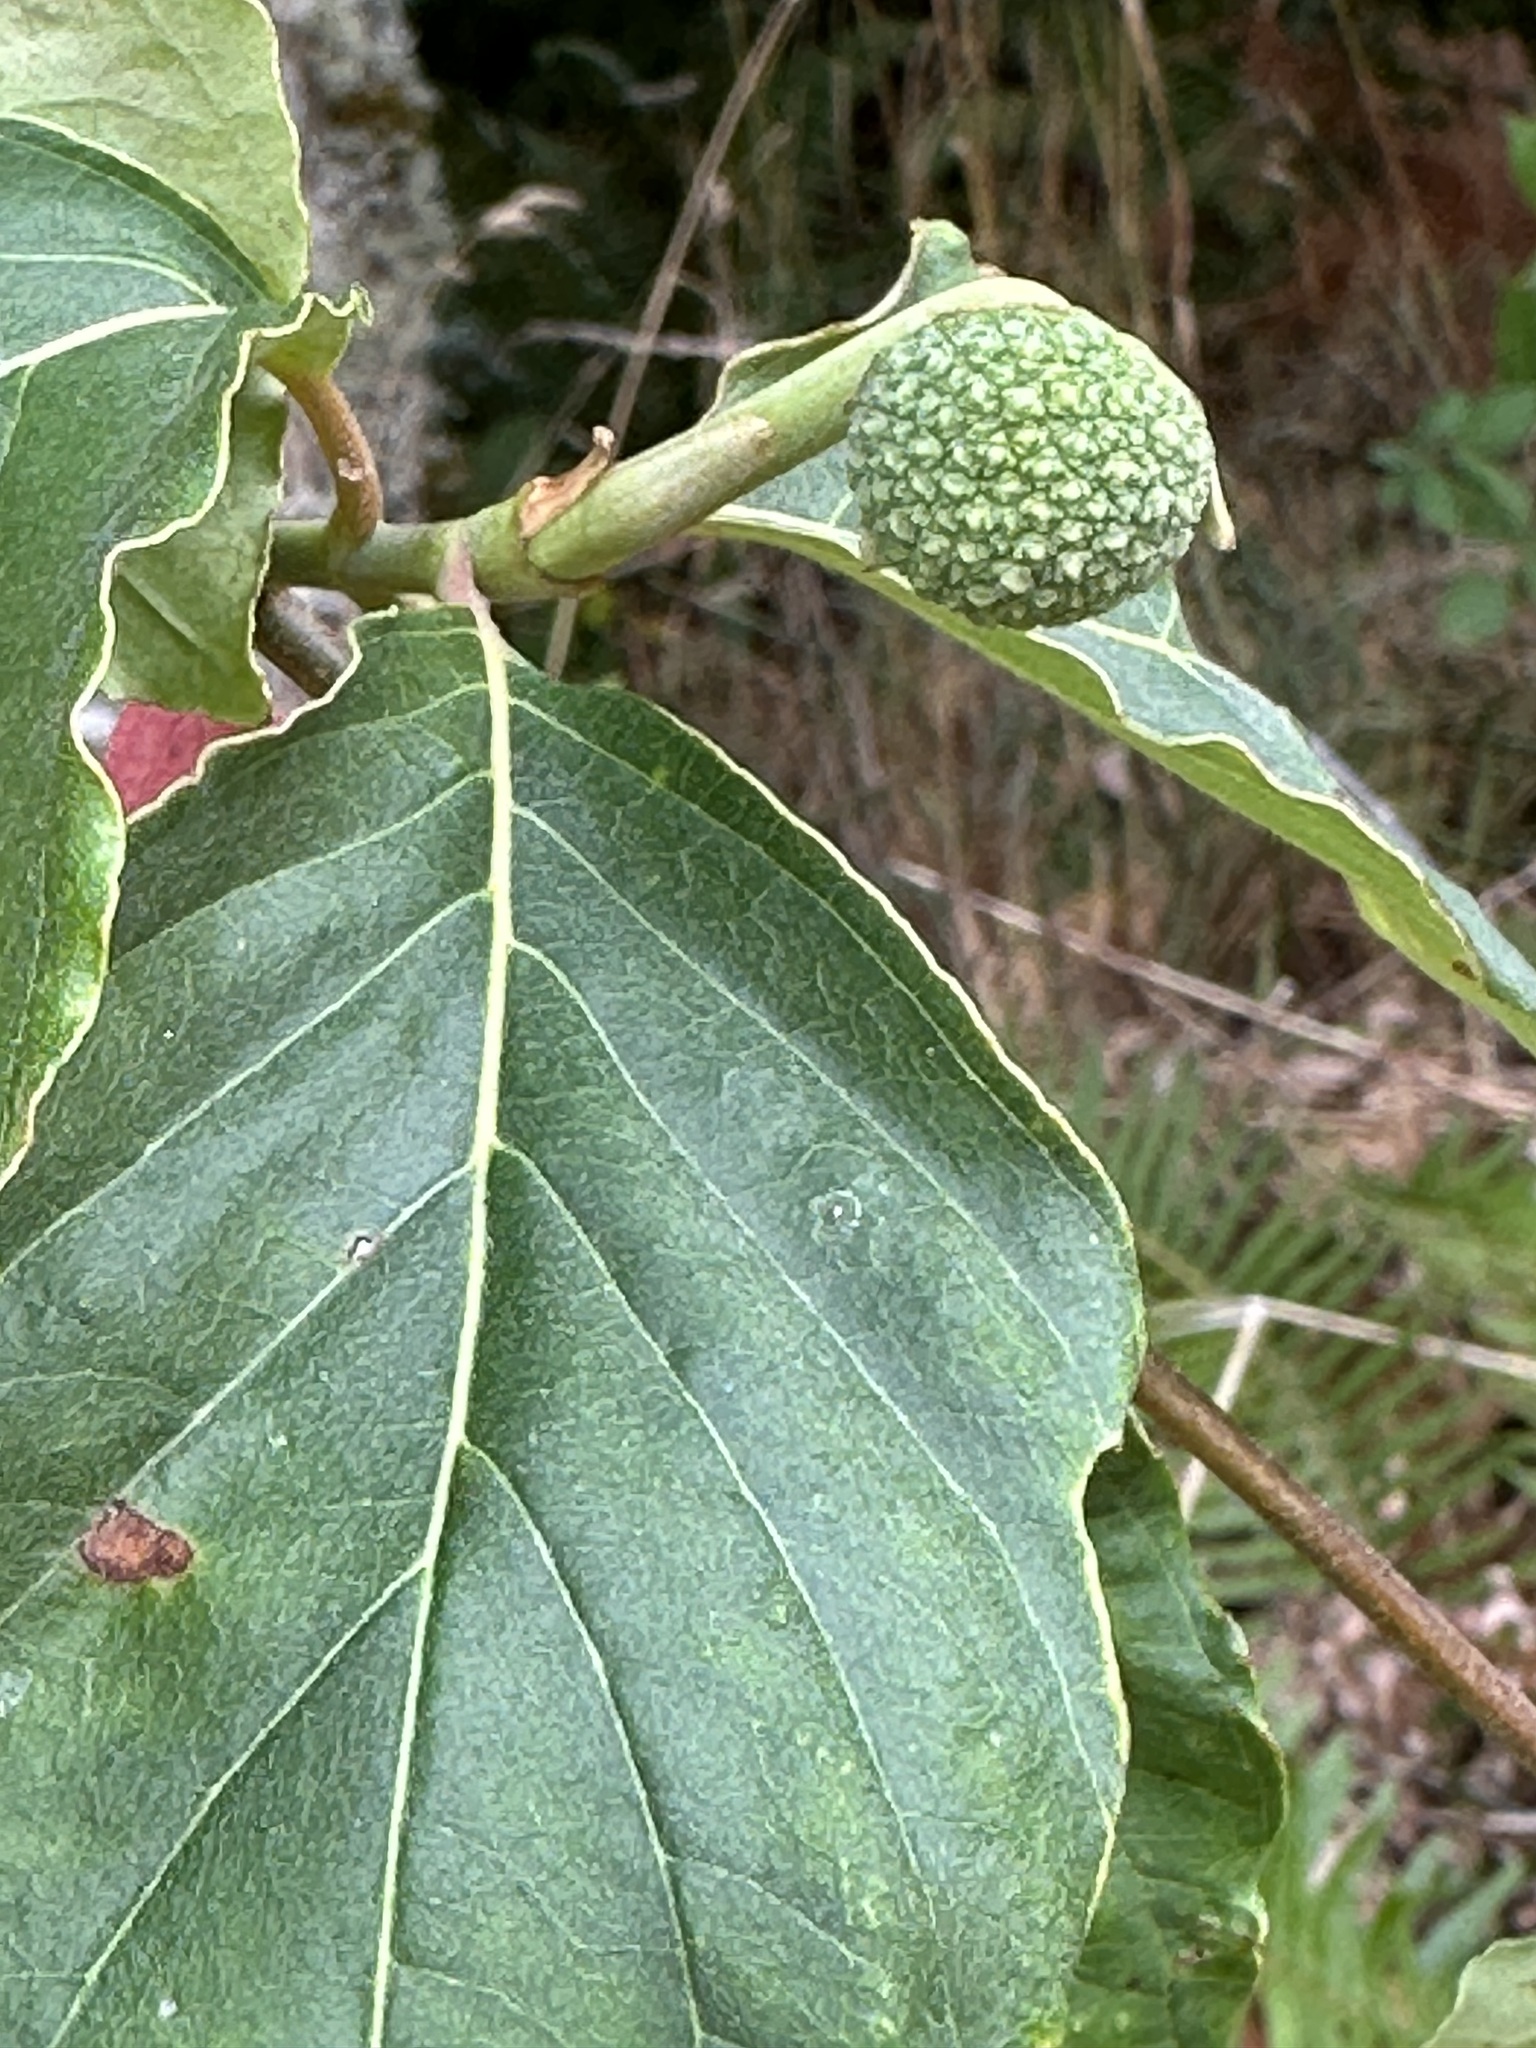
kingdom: Plantae
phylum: Tracheophyta
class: Magnoliopsida
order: Cornales
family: Cornaceae
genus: Cornus
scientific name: Cornus nuttallii
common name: Pacific dogwood
